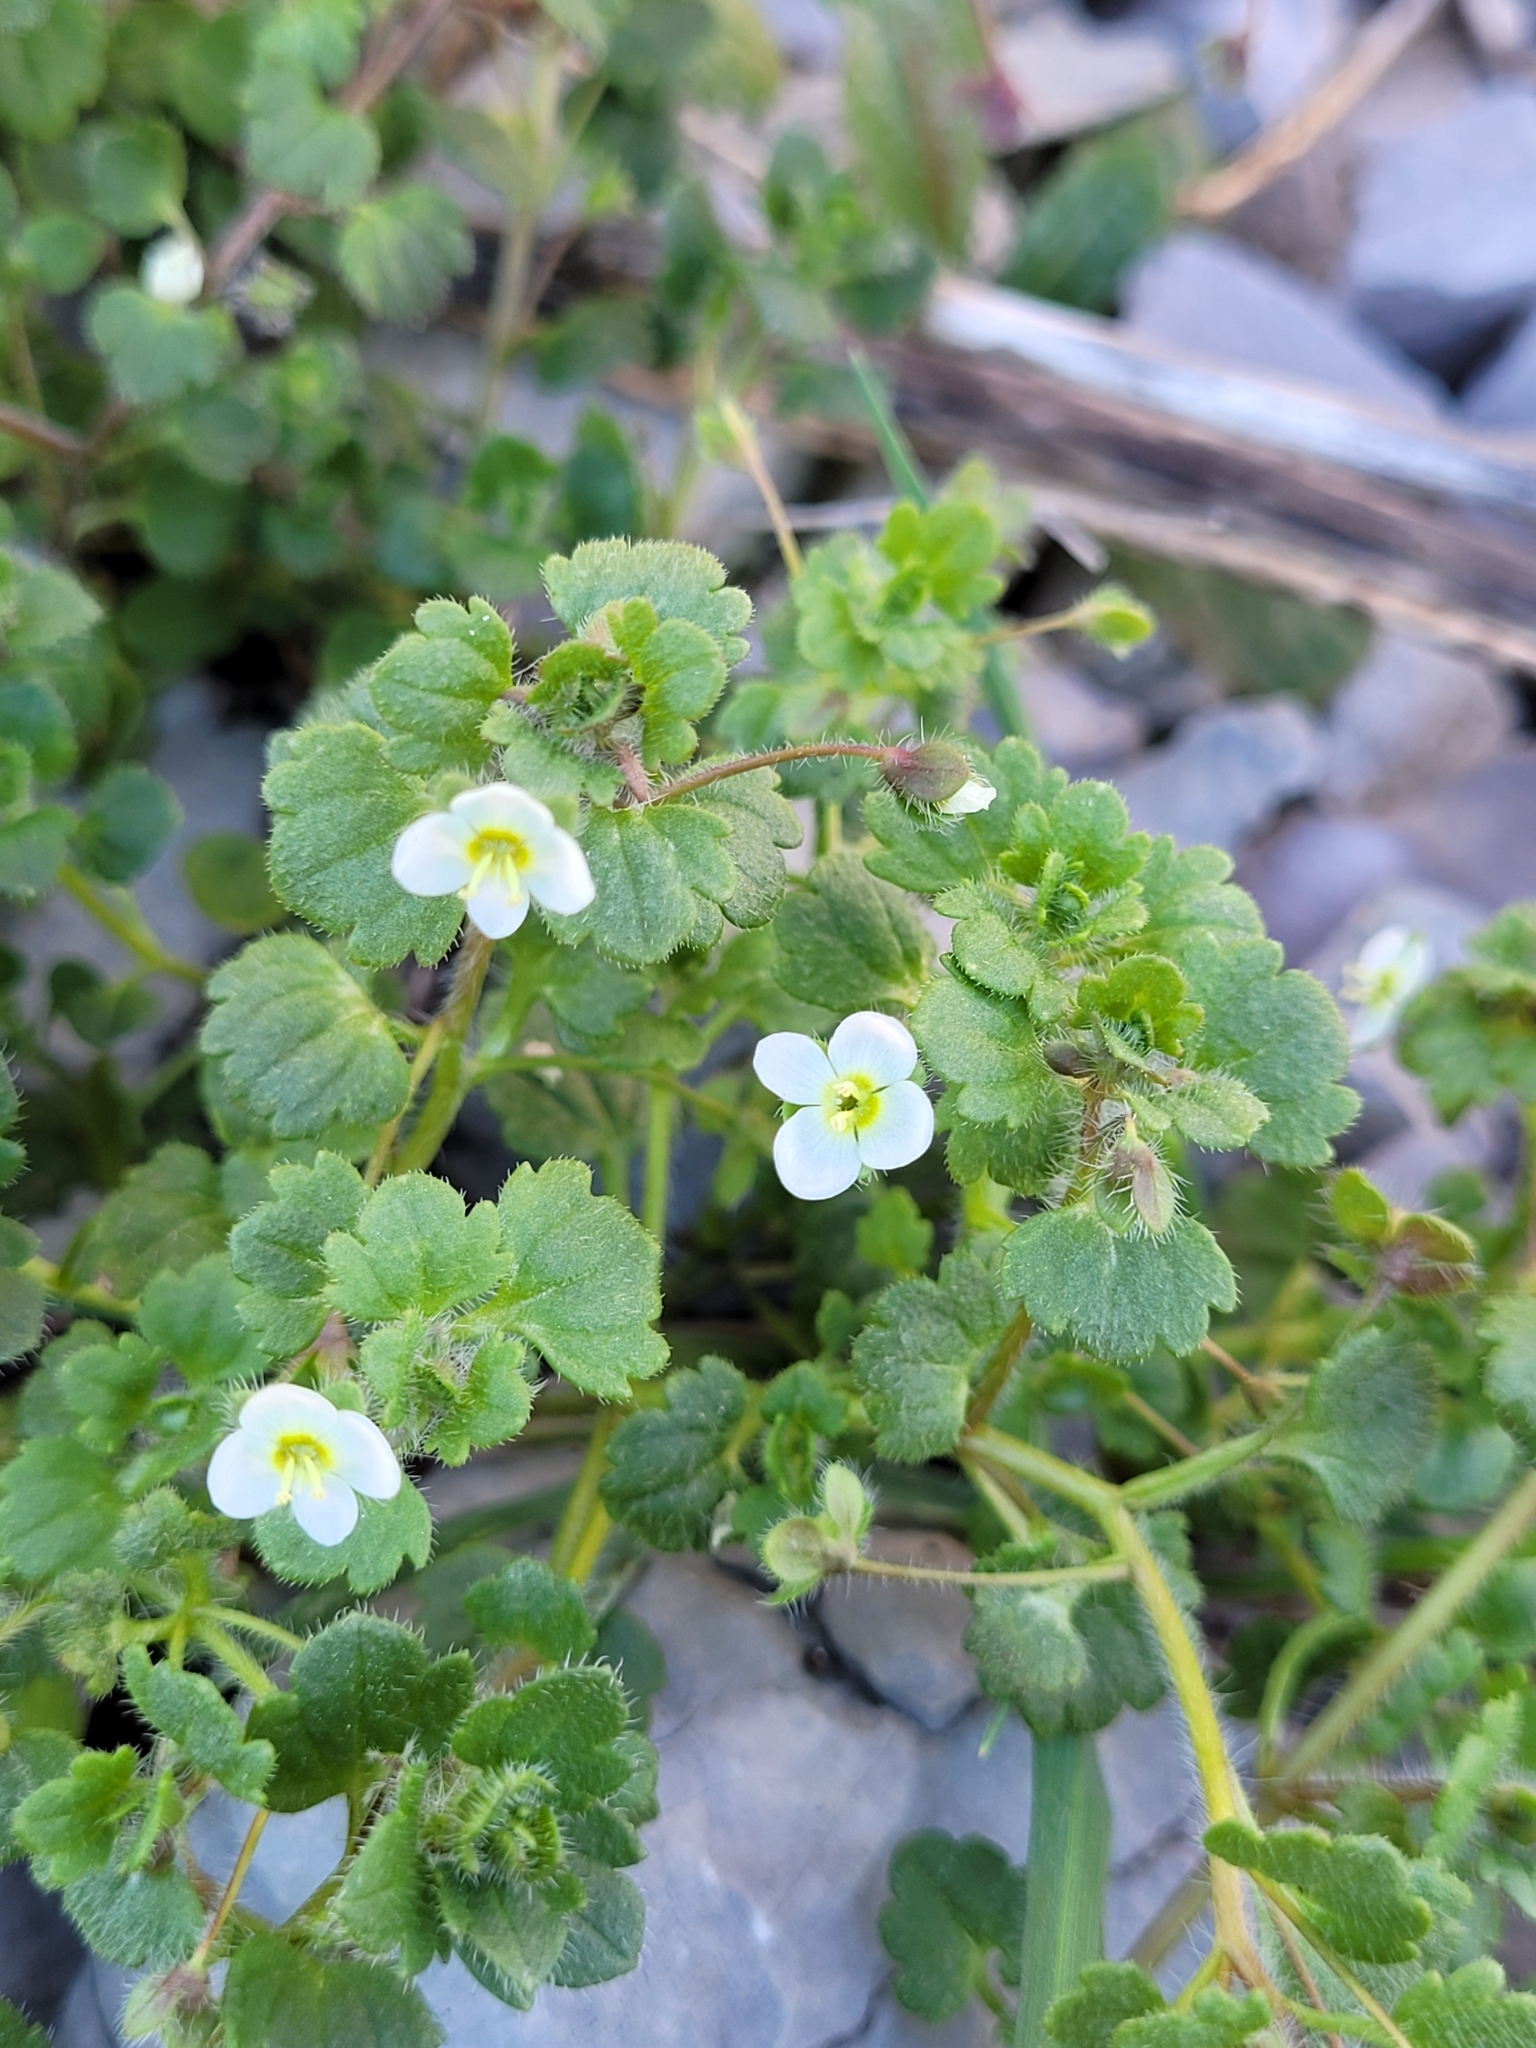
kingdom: Plantae
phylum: Tracheophyta
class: Magnoliopsida
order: Lamiales
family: Plantaginaceae
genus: Veronica
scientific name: Veronica cymbalaria
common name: Pale speedwell
